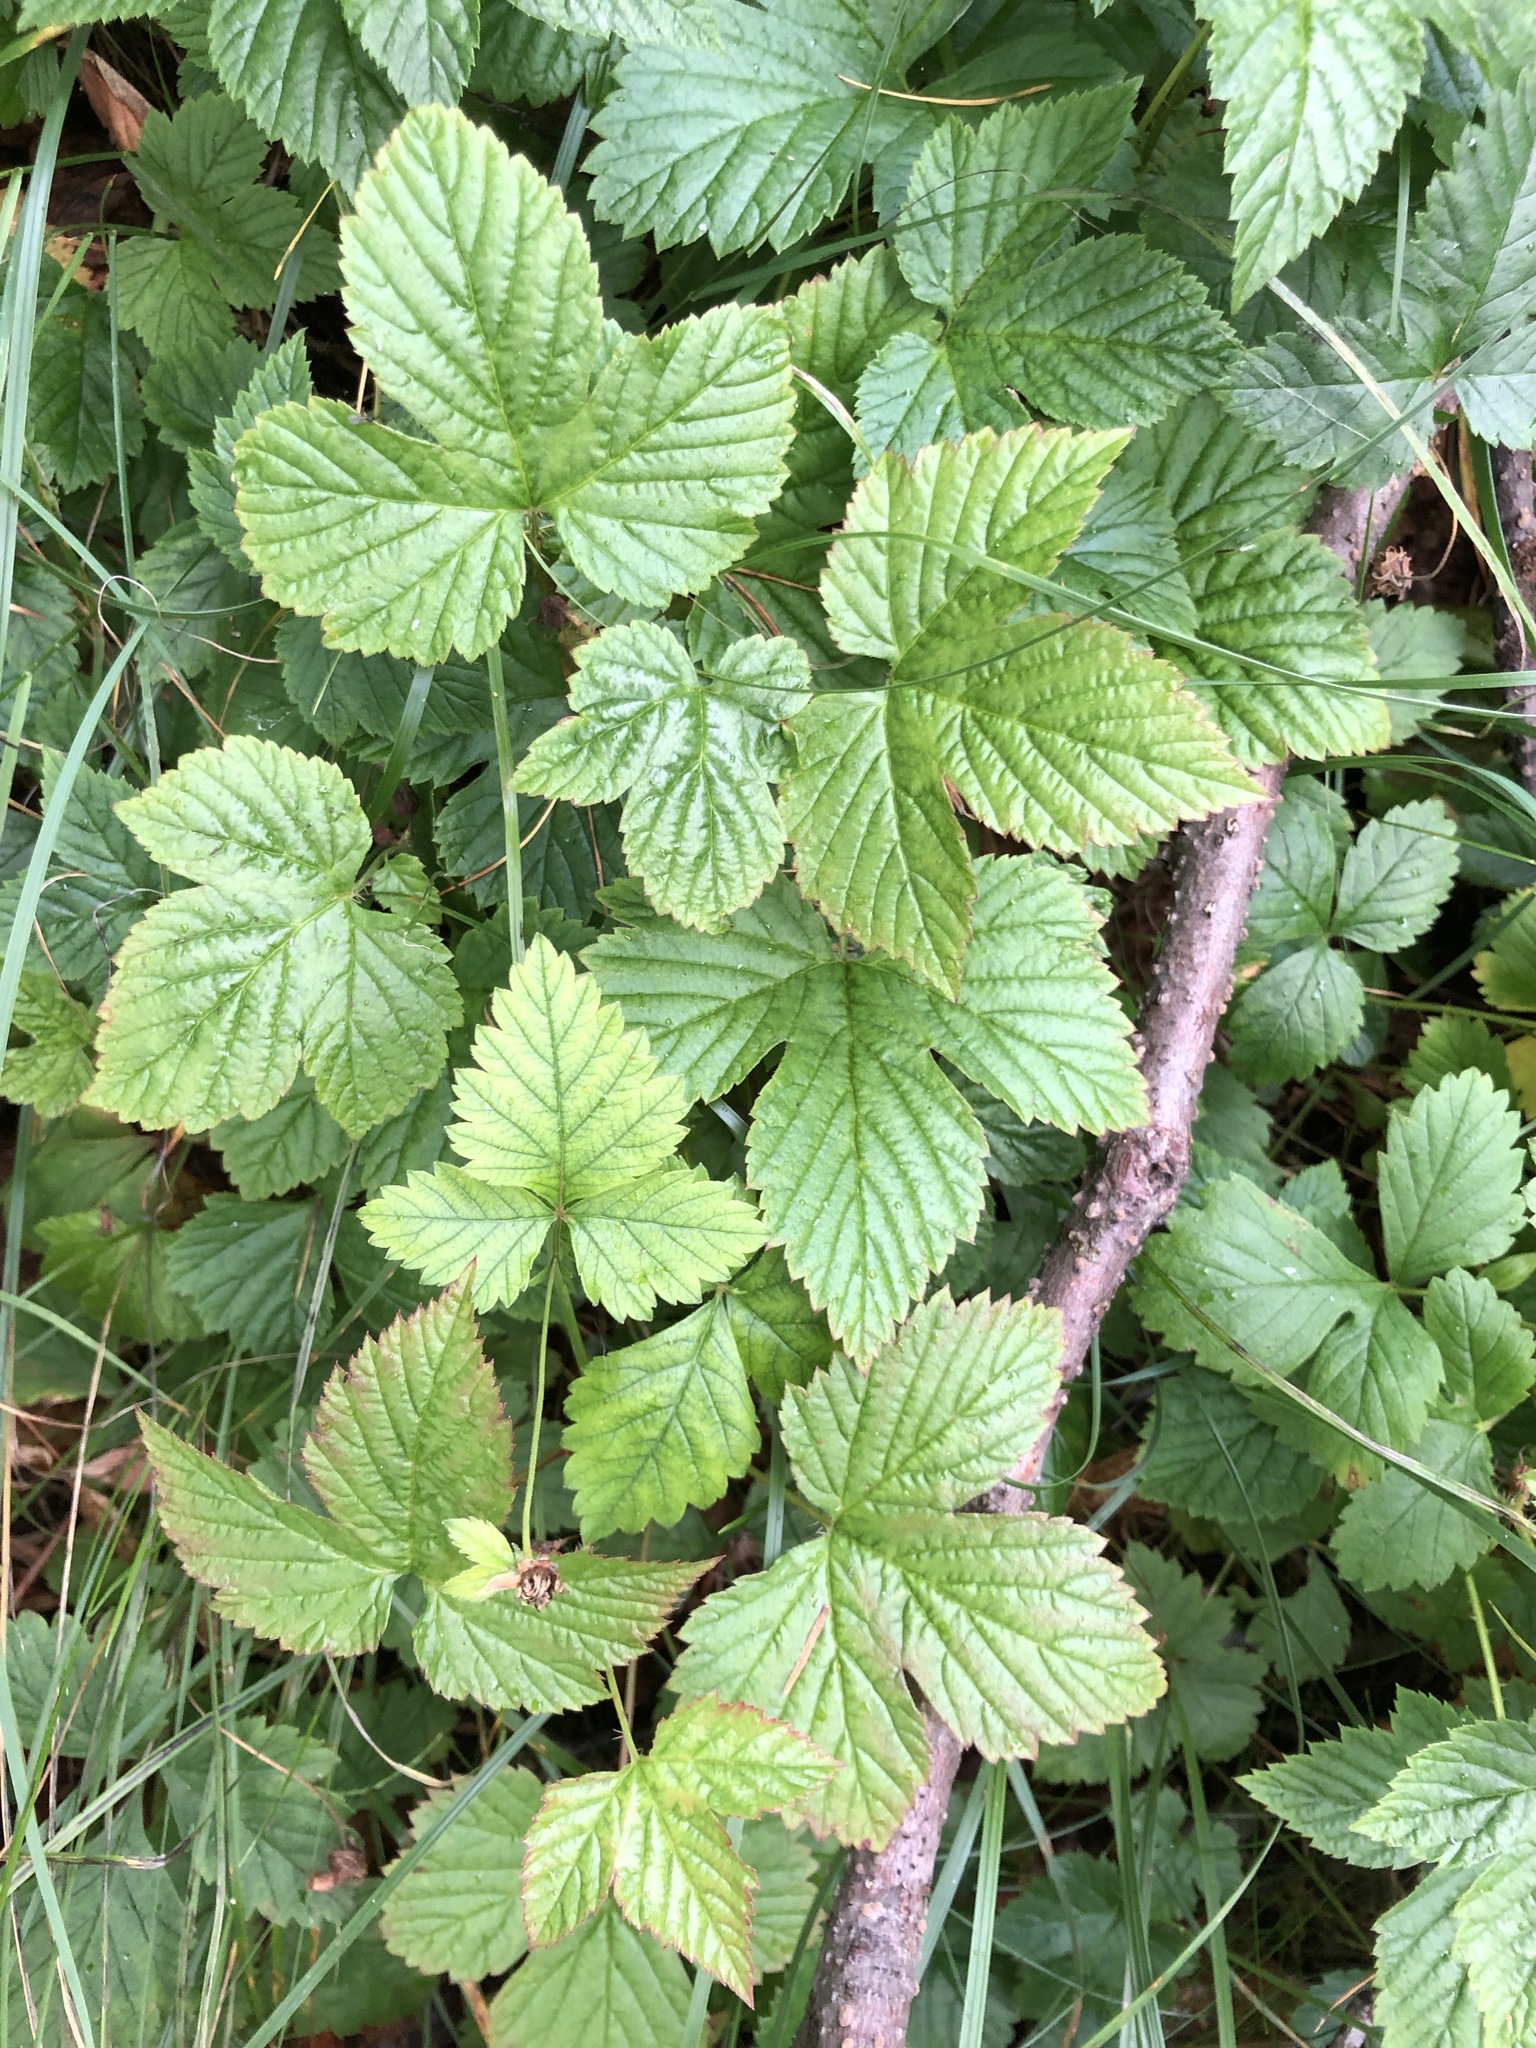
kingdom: Plantae
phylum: Tracheophyta
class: Magnoliopsida
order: Rosales
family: Rosaceae
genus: Rubus
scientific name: Rubus humulifolius
